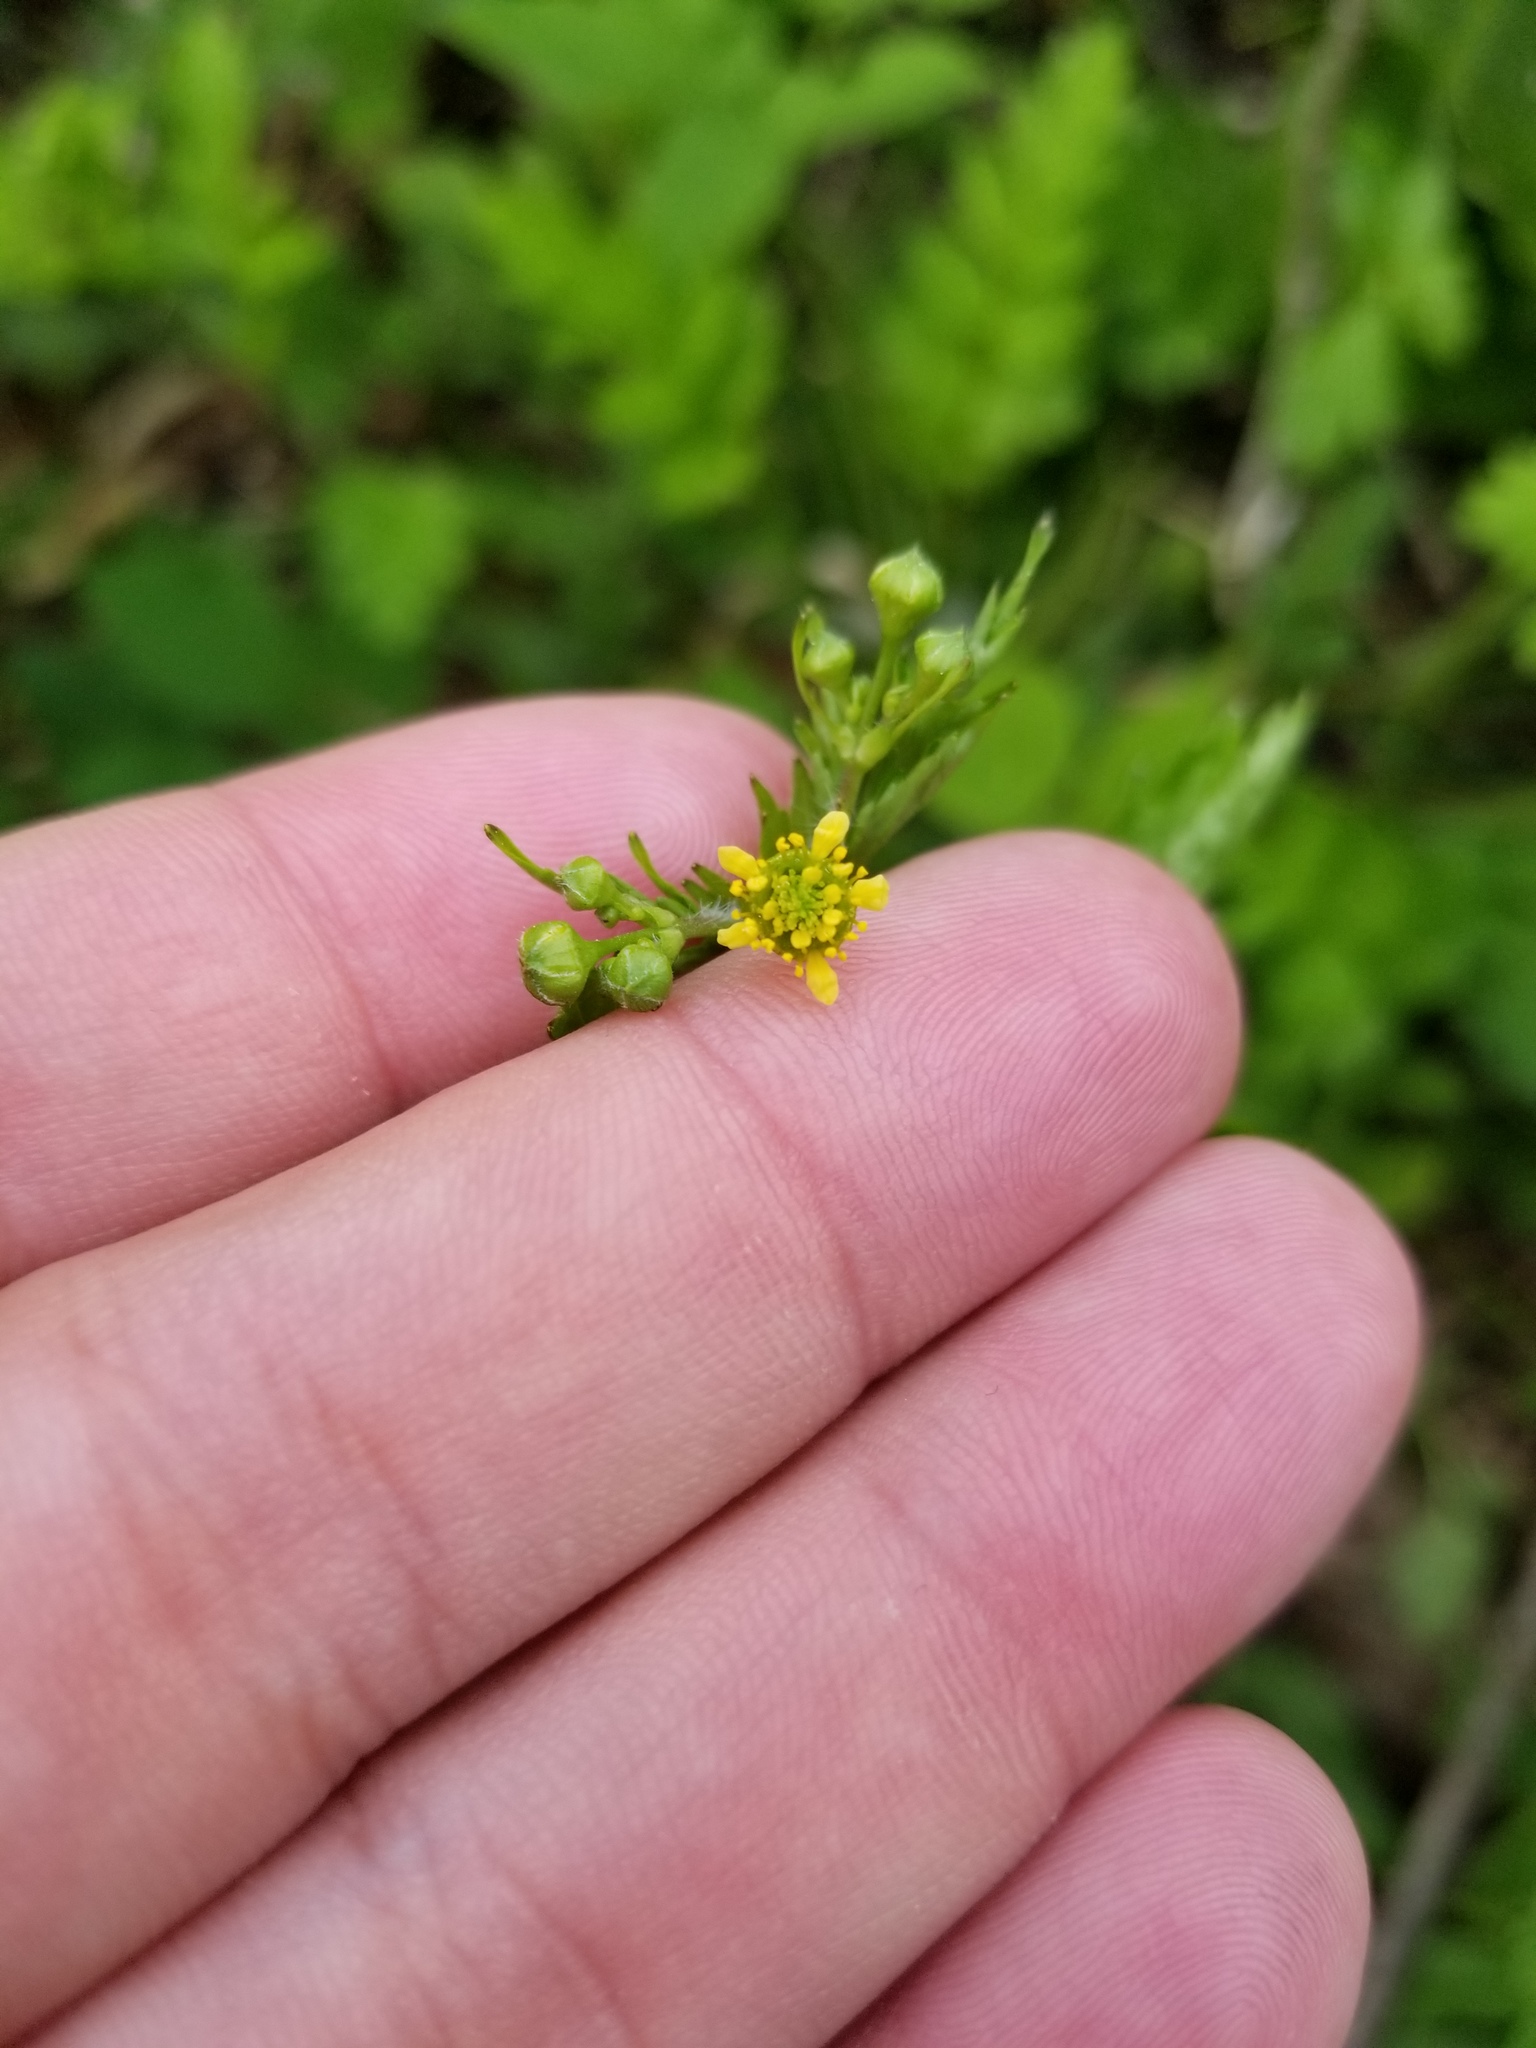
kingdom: Plantae
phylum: Tracheophyta
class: Magnoliopsida
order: Rosales
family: Rosaceae
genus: Geum
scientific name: Geum vernum
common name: Spring avens
